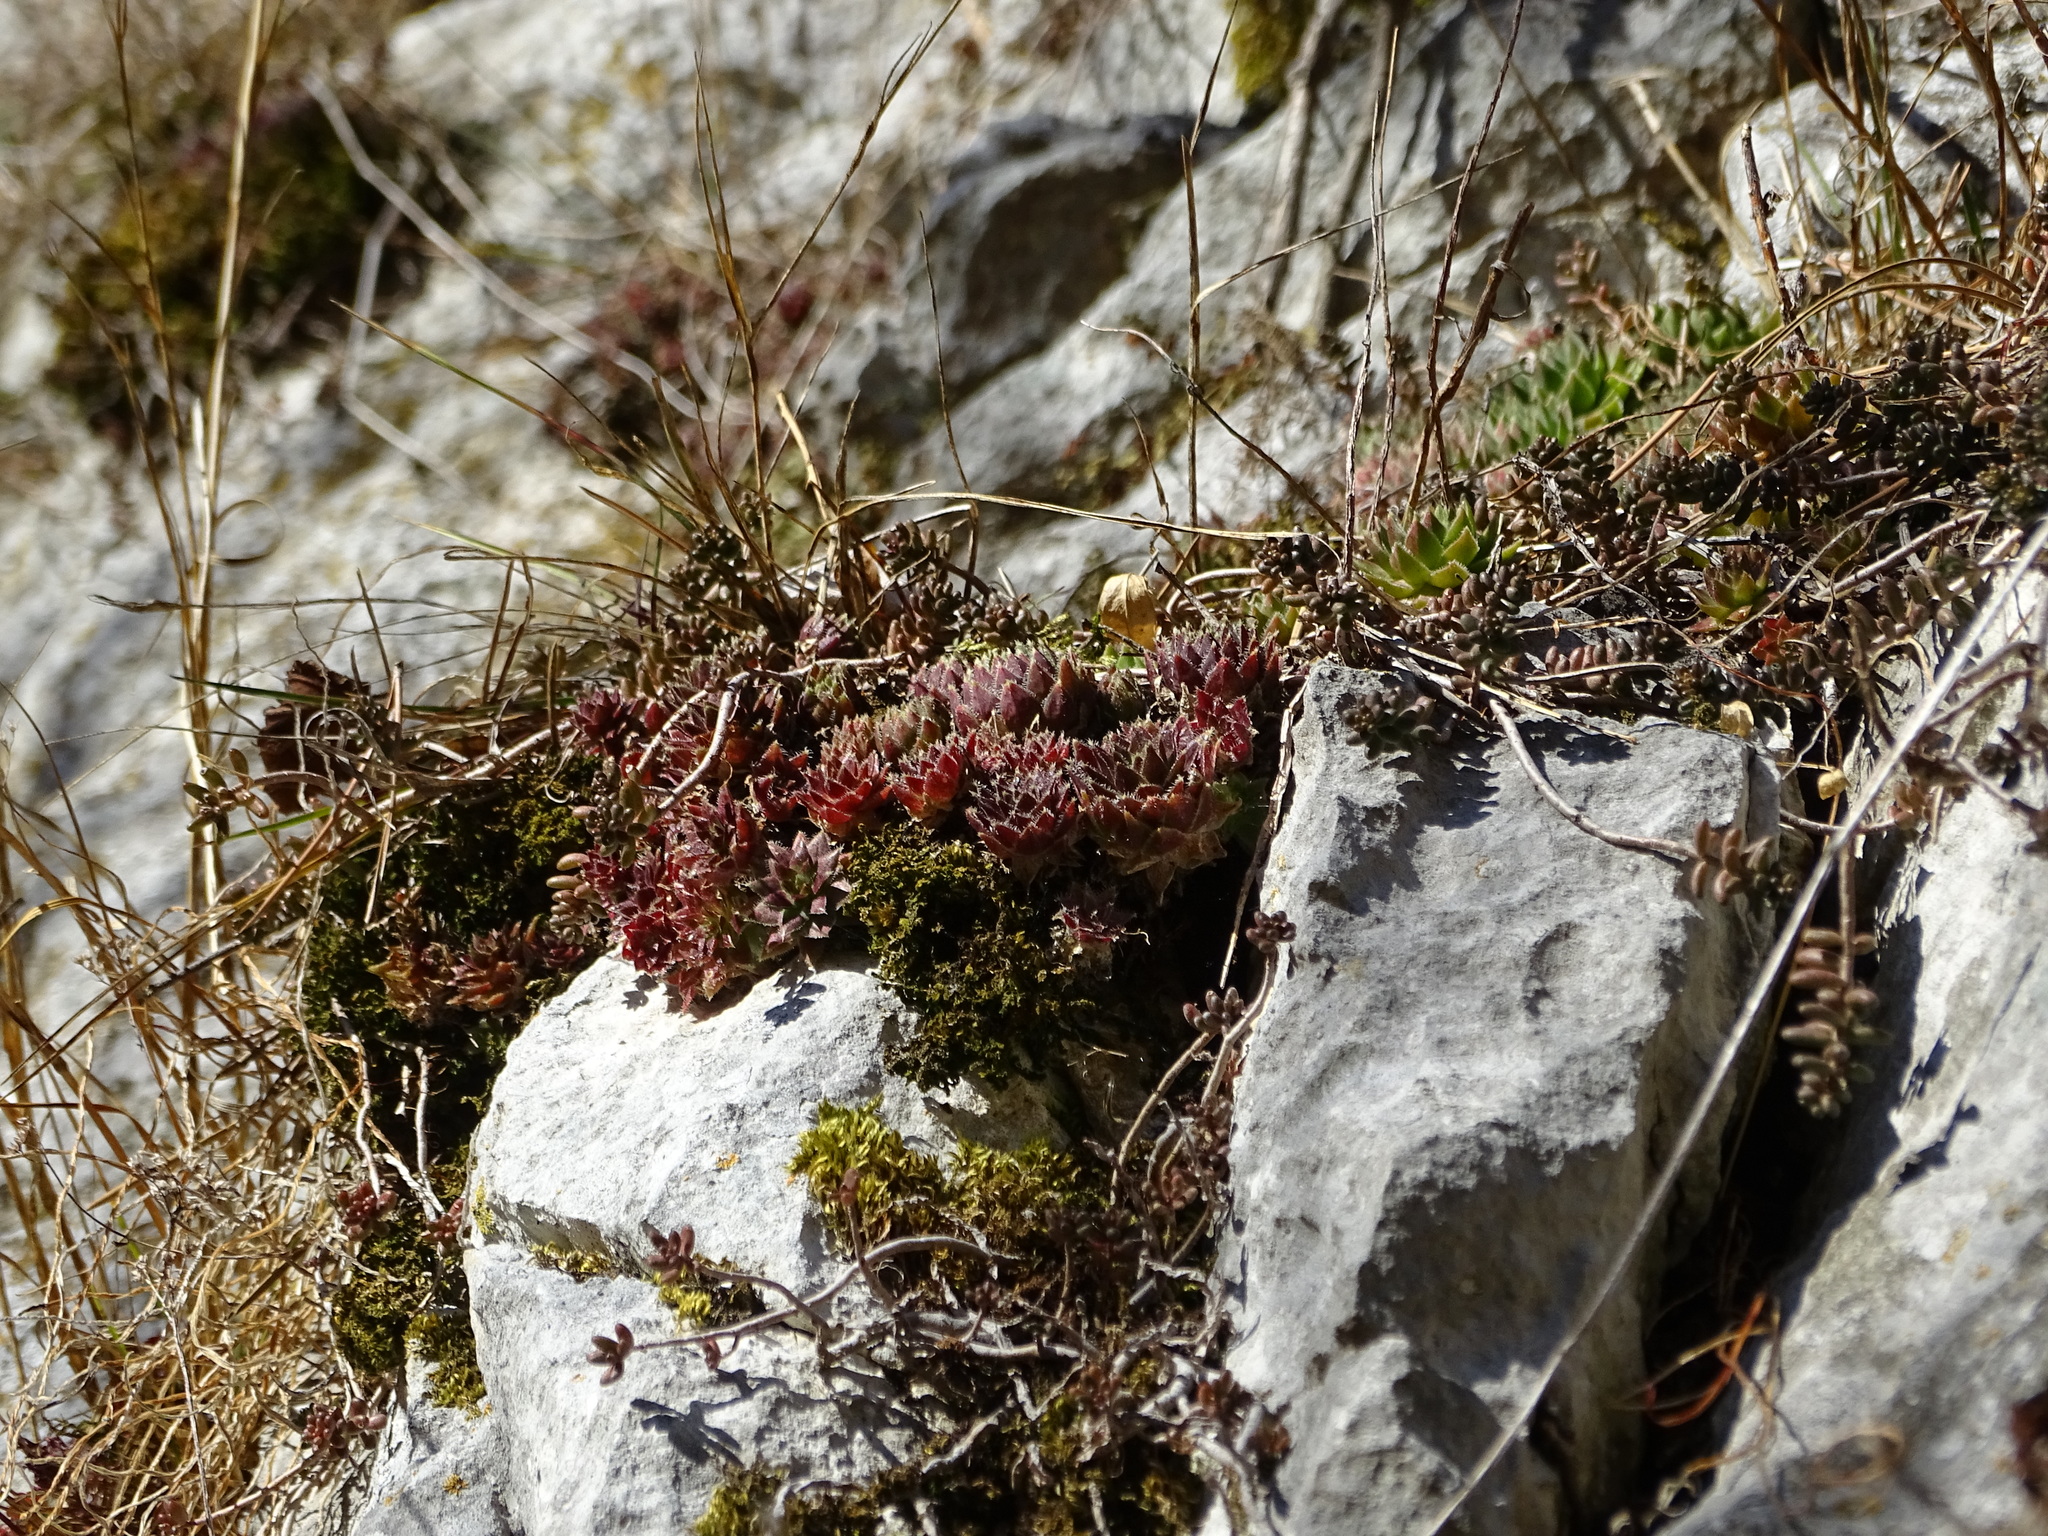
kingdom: Plantae
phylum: Tracheophyta
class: Magnoliopsida
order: Saxifragales
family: Crassulaceae
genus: Sempervivum
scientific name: Sempervivum globiferum
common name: Rolling hen-and-chicks
